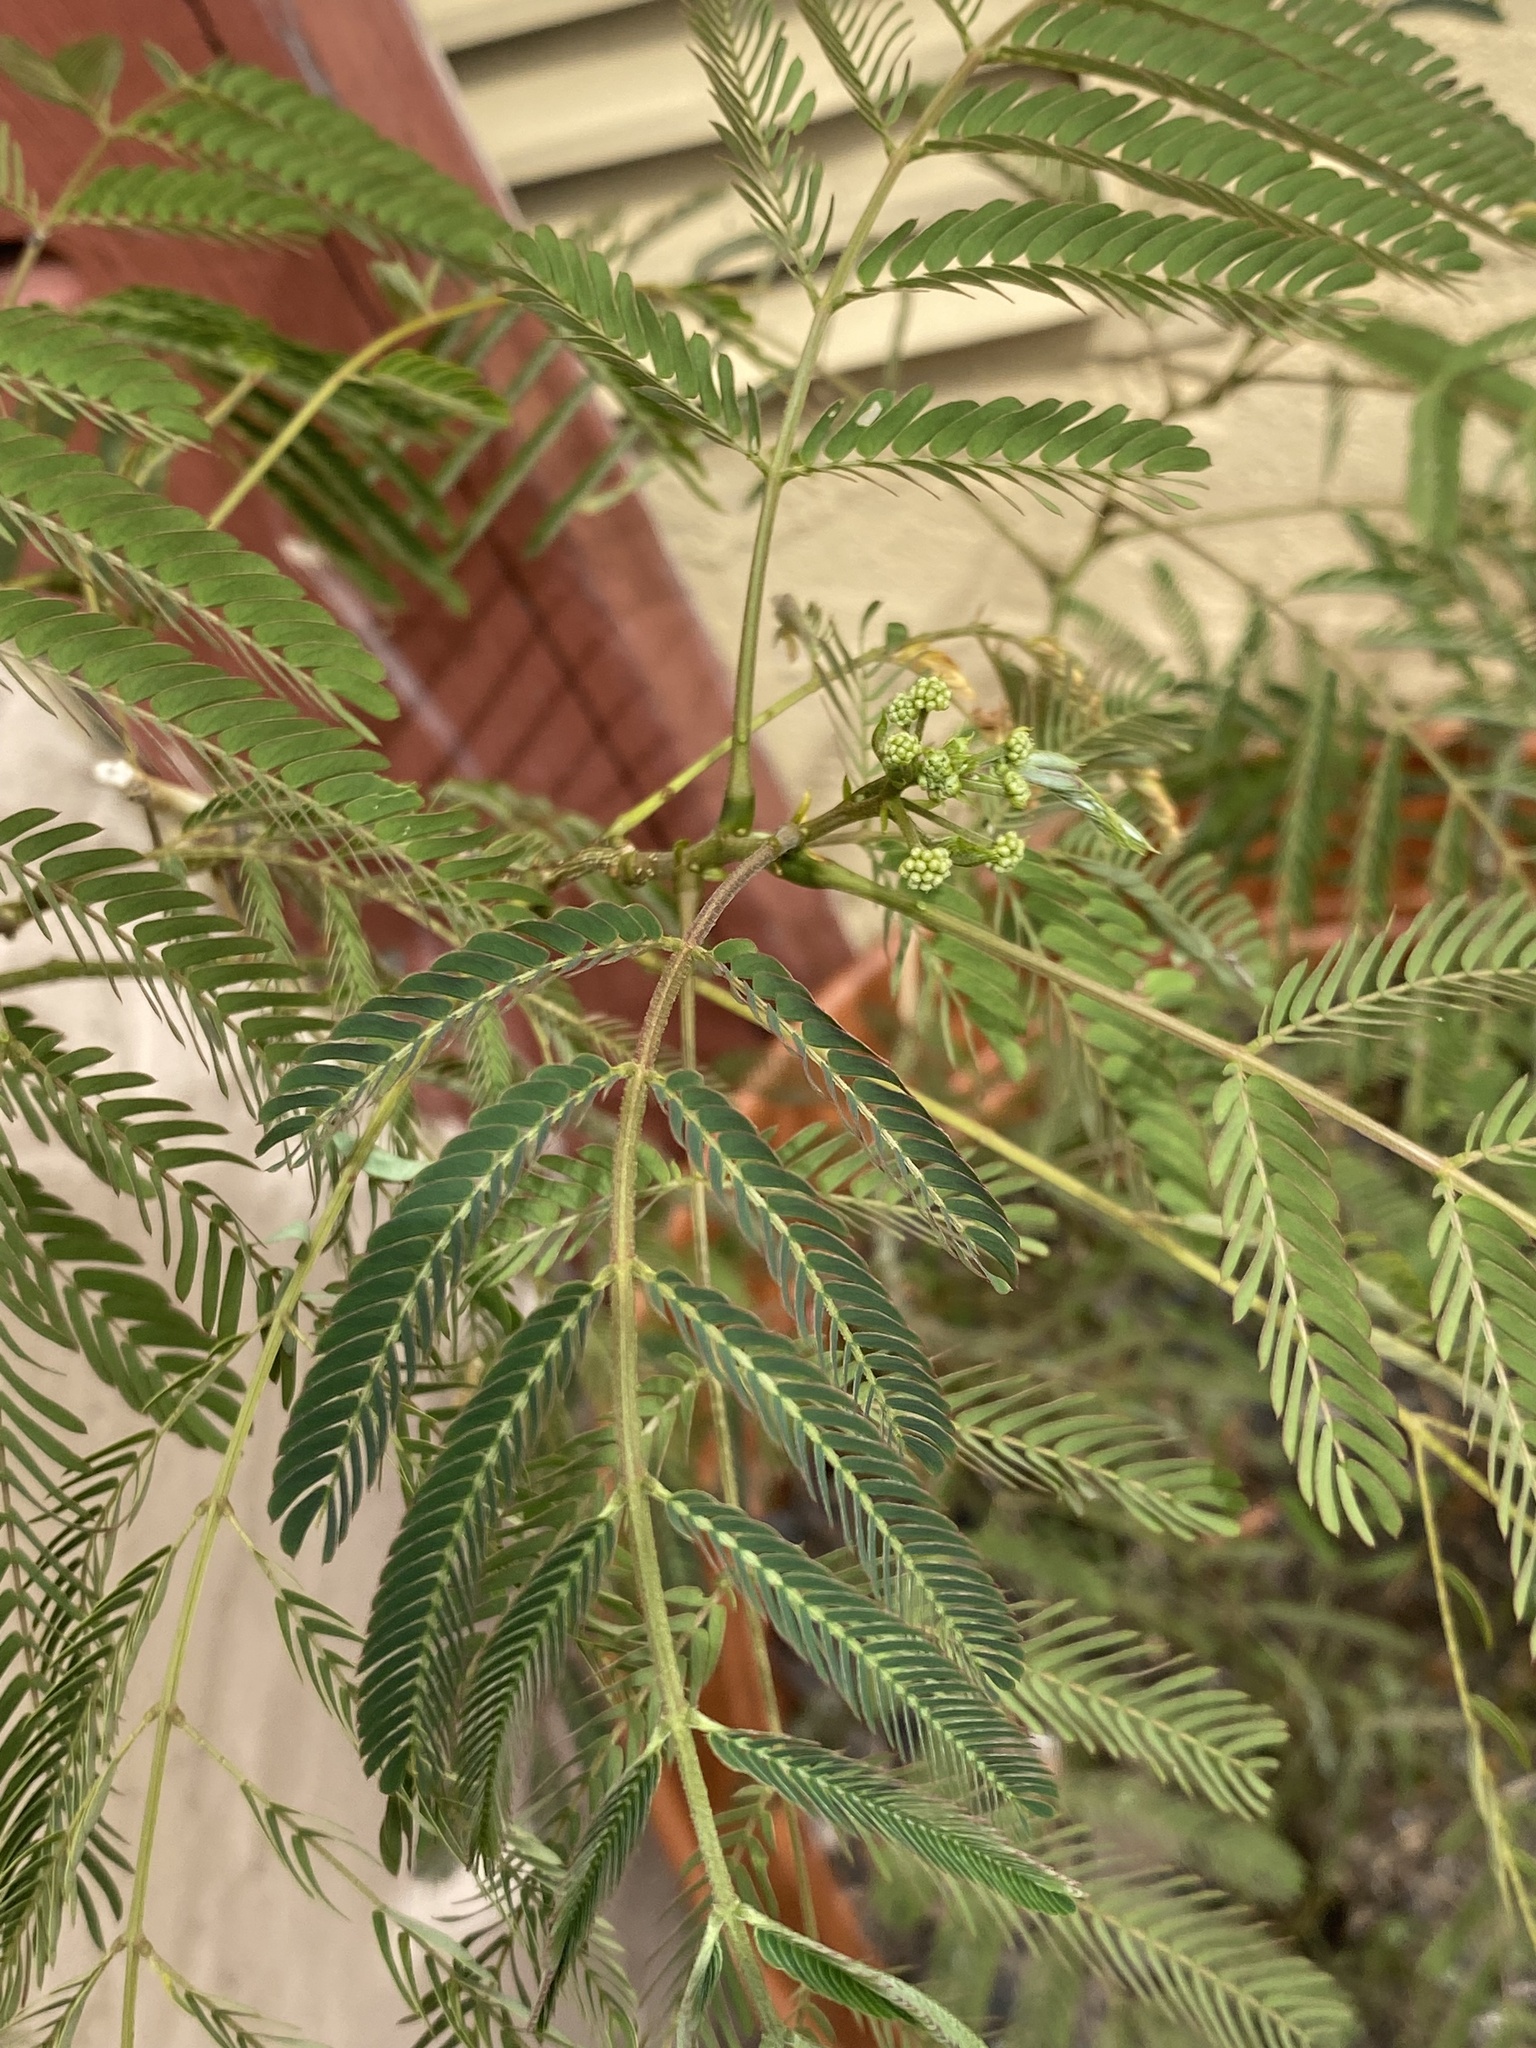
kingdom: Plantae
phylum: Tracheophyta
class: Magnoliopsida
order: Fabales
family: Fabaceae
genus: Albizia
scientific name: Albizia julibrissin
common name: Silktree
